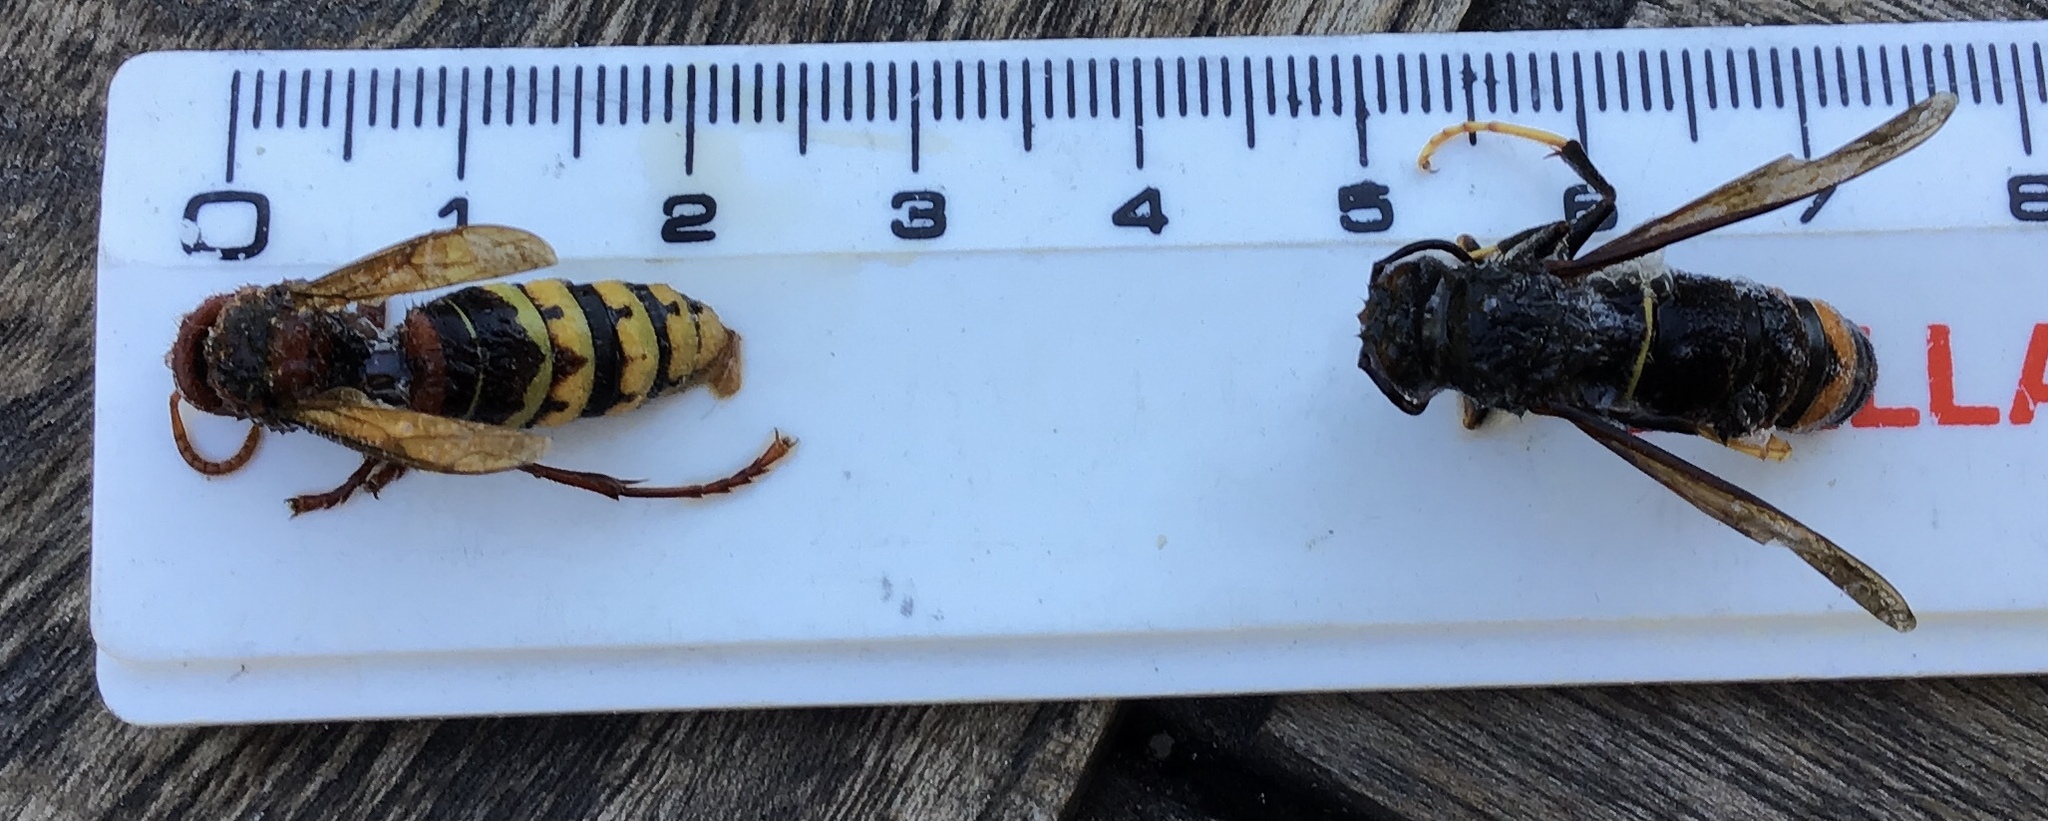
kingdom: Animalia
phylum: Arthropoda
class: Insecta
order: Hymenoptera
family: Vespidae
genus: Vespa
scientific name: Vespa velutina
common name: Asian hornet
